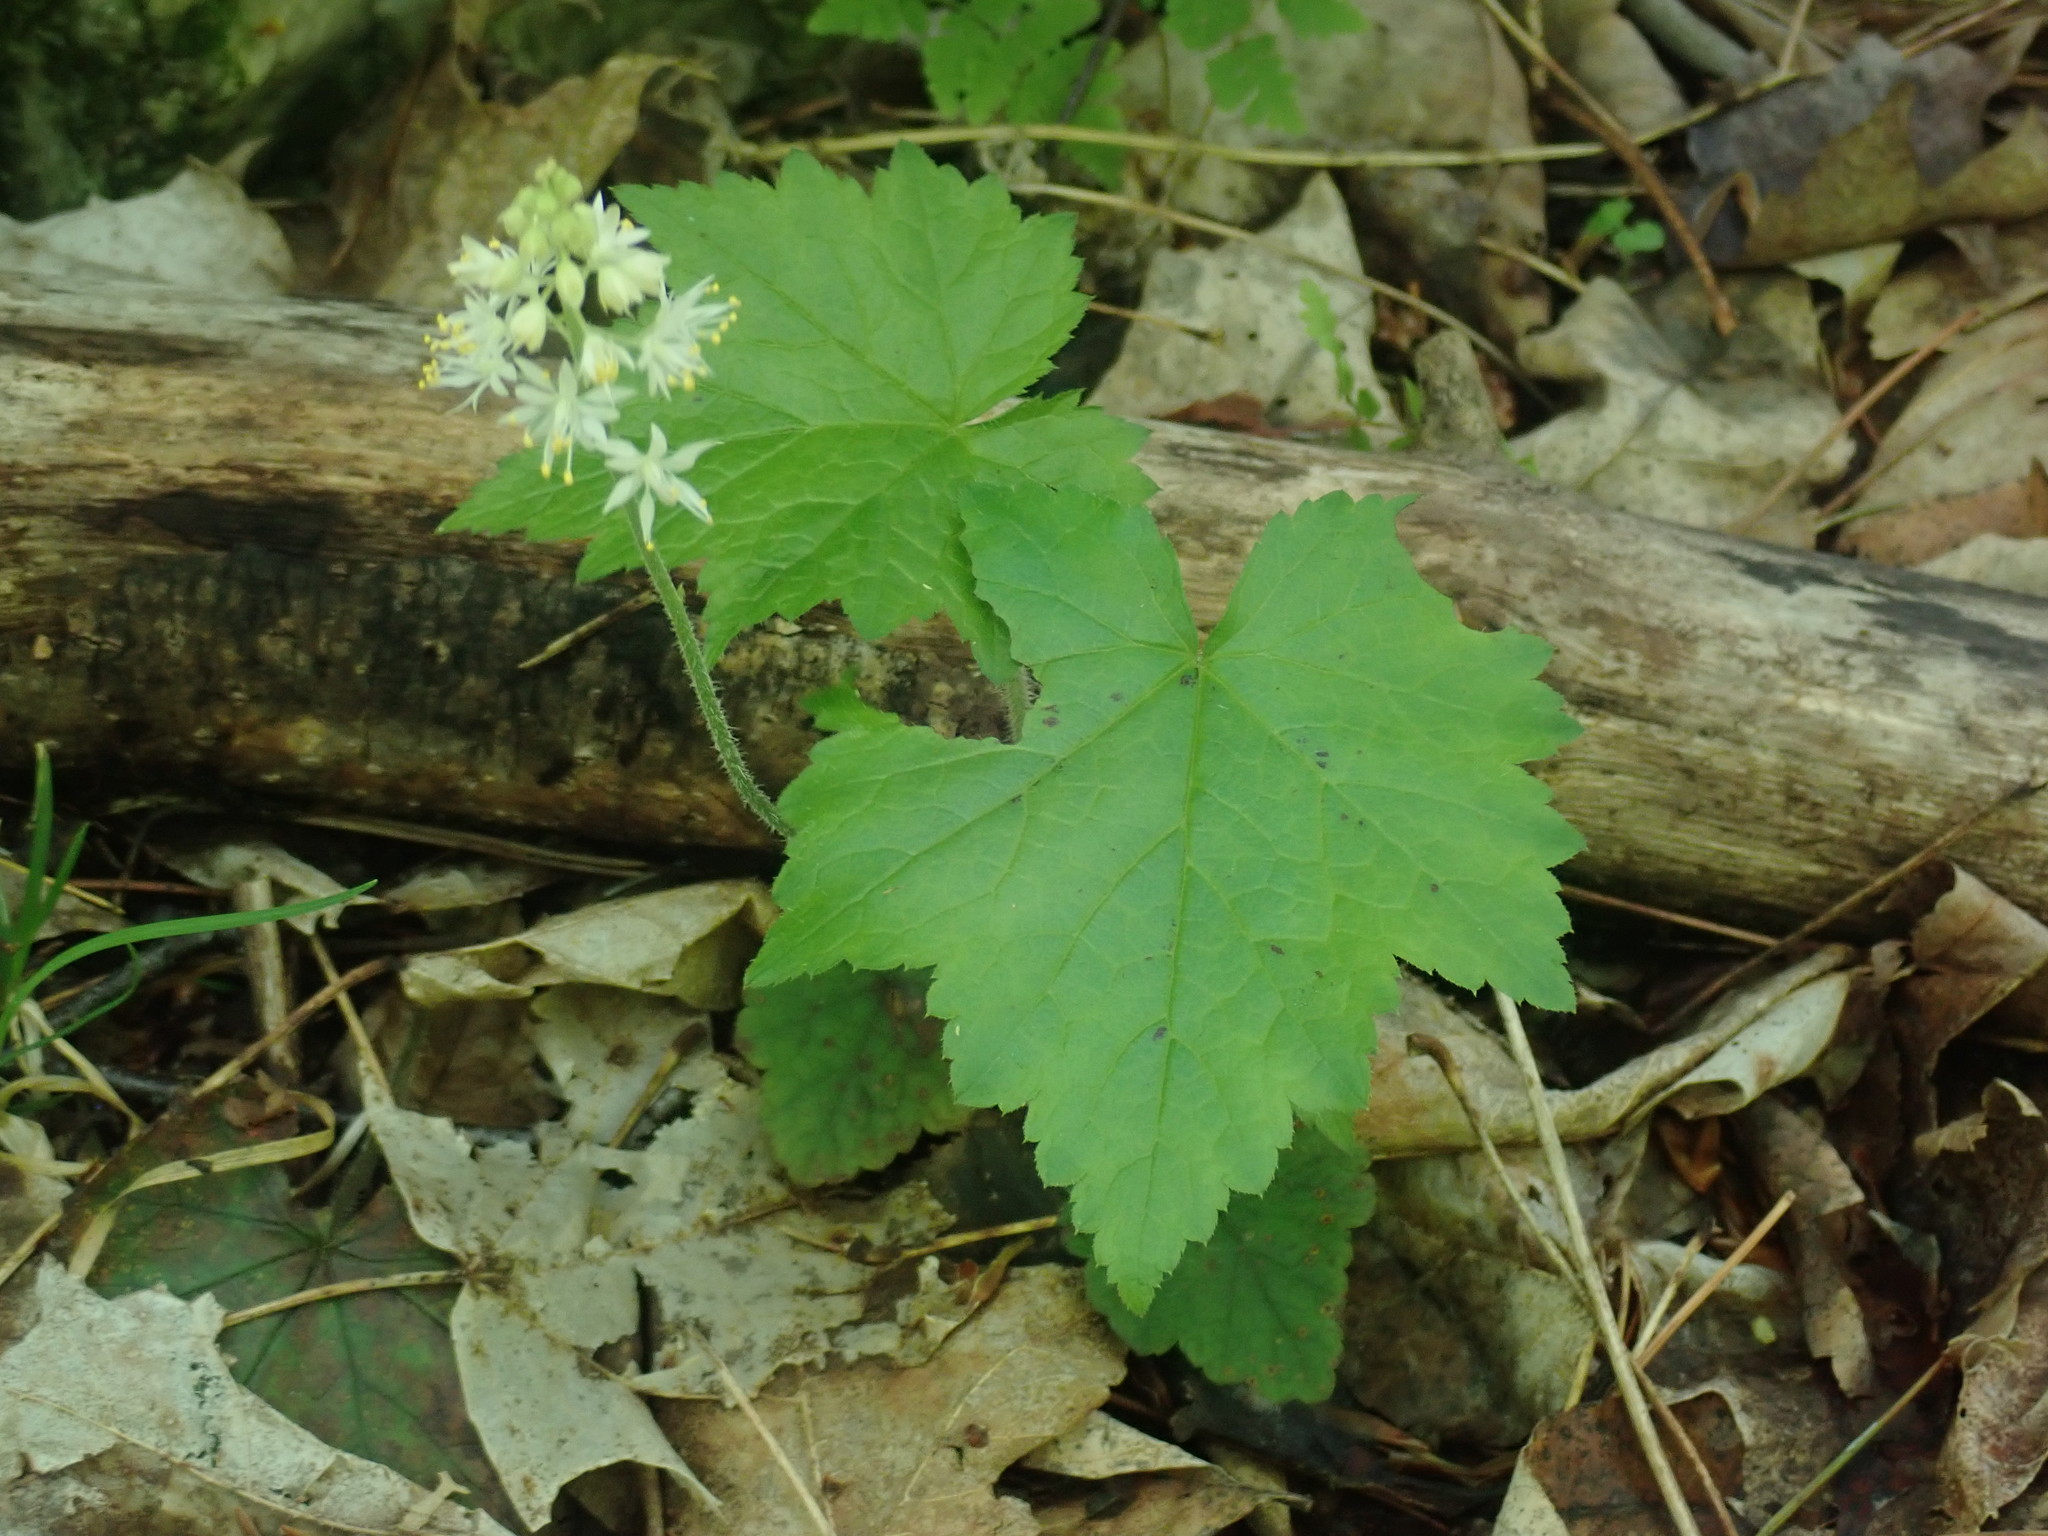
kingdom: Plantae
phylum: Tracheophyta
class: Magnoliopsida
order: Saxifragales
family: Saxifragaceae
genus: Tiarella
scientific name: Tiarella stolonifera
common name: Stoloniferous foamflower
